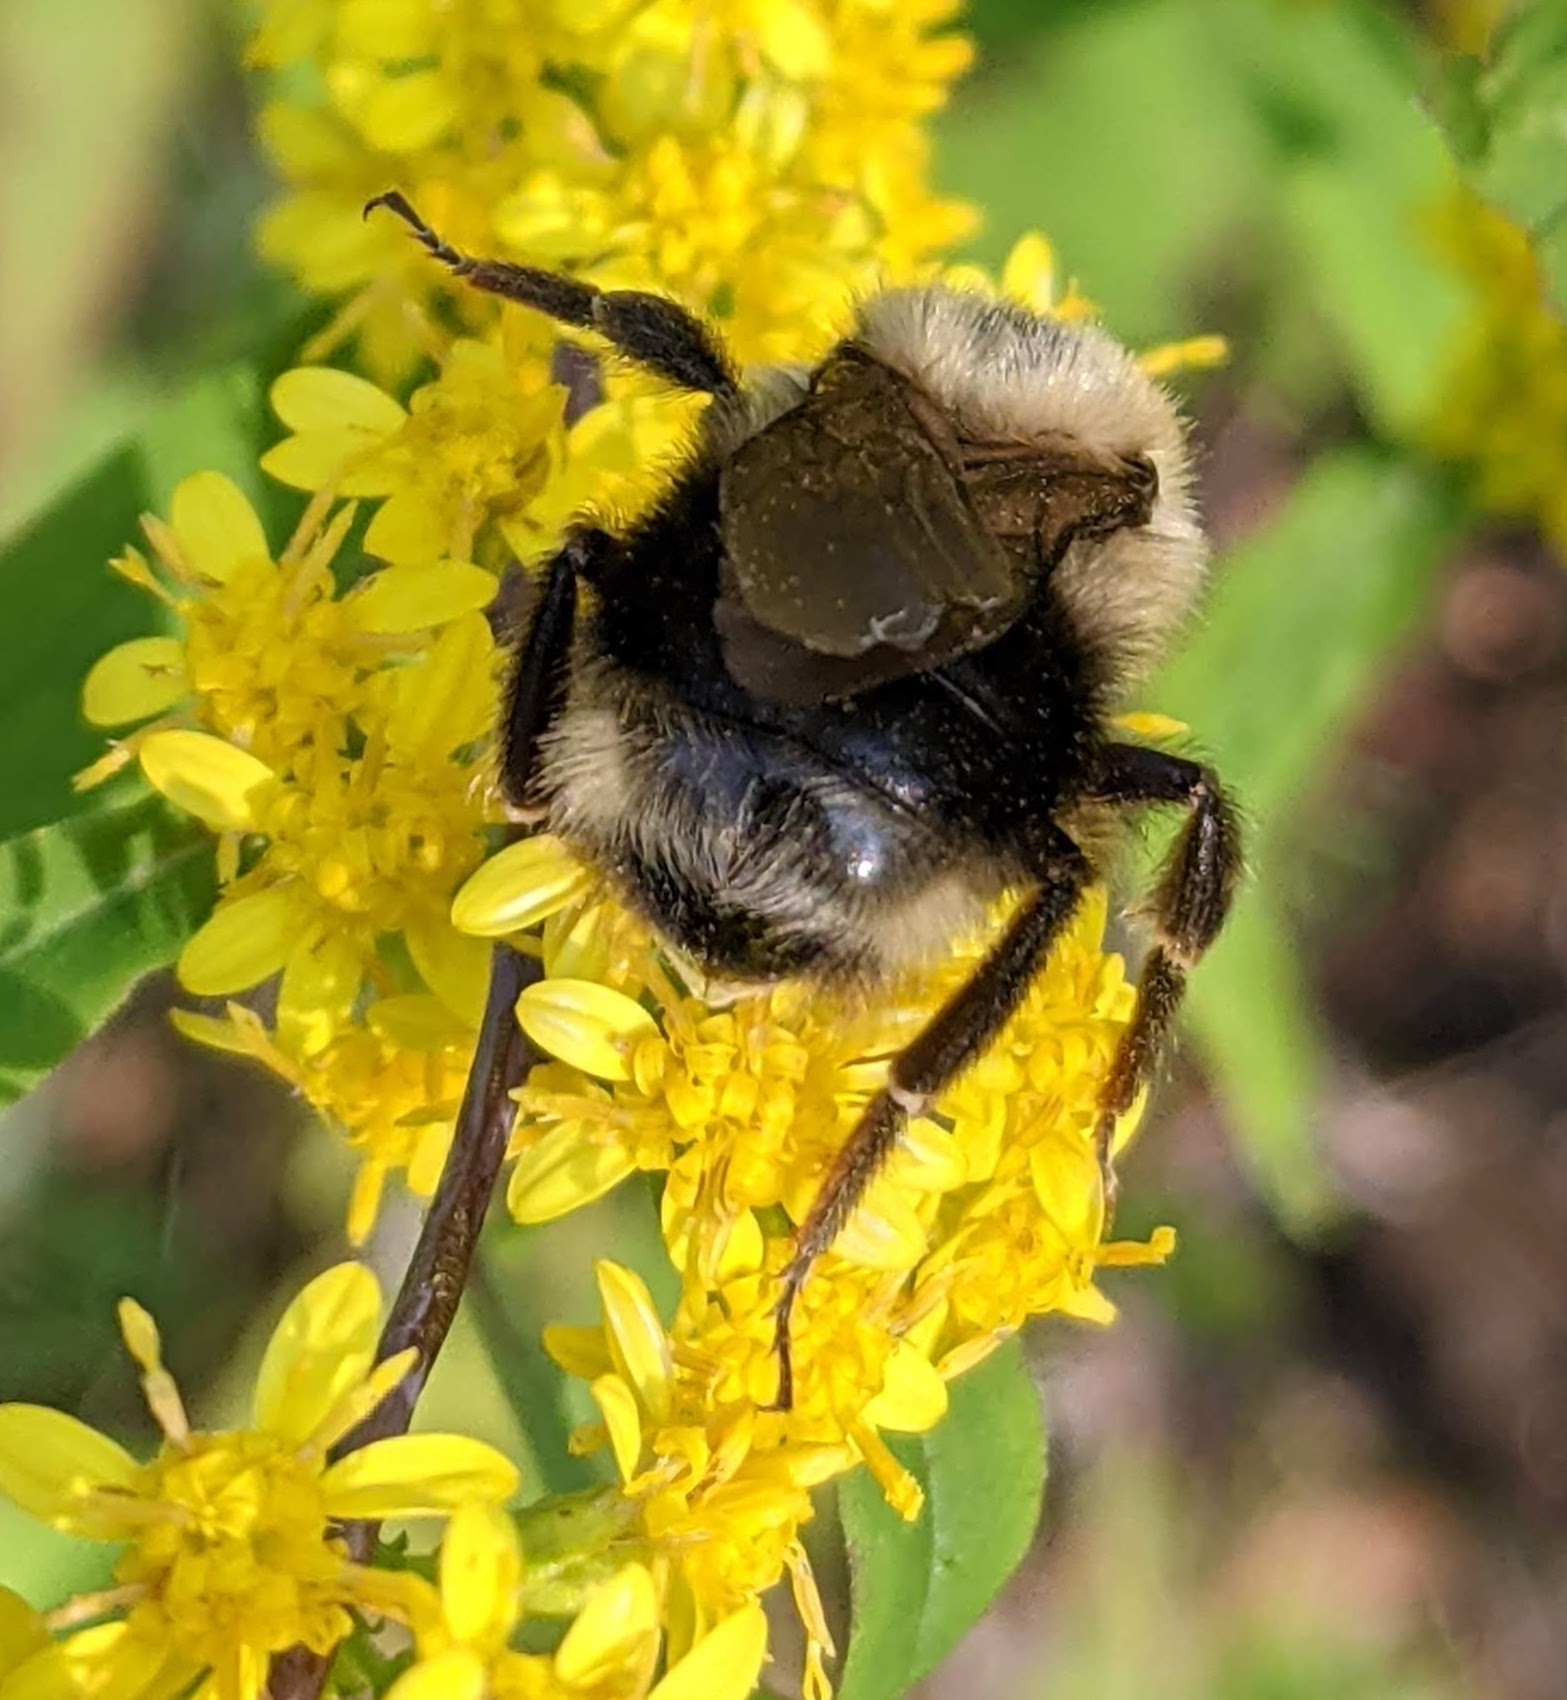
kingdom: Animalia
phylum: Arthropoda
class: Insecta
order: Hymenoptera
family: Apidae
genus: Bombus
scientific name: Bombus flavidus
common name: Fernald cuckoo bumble bee
